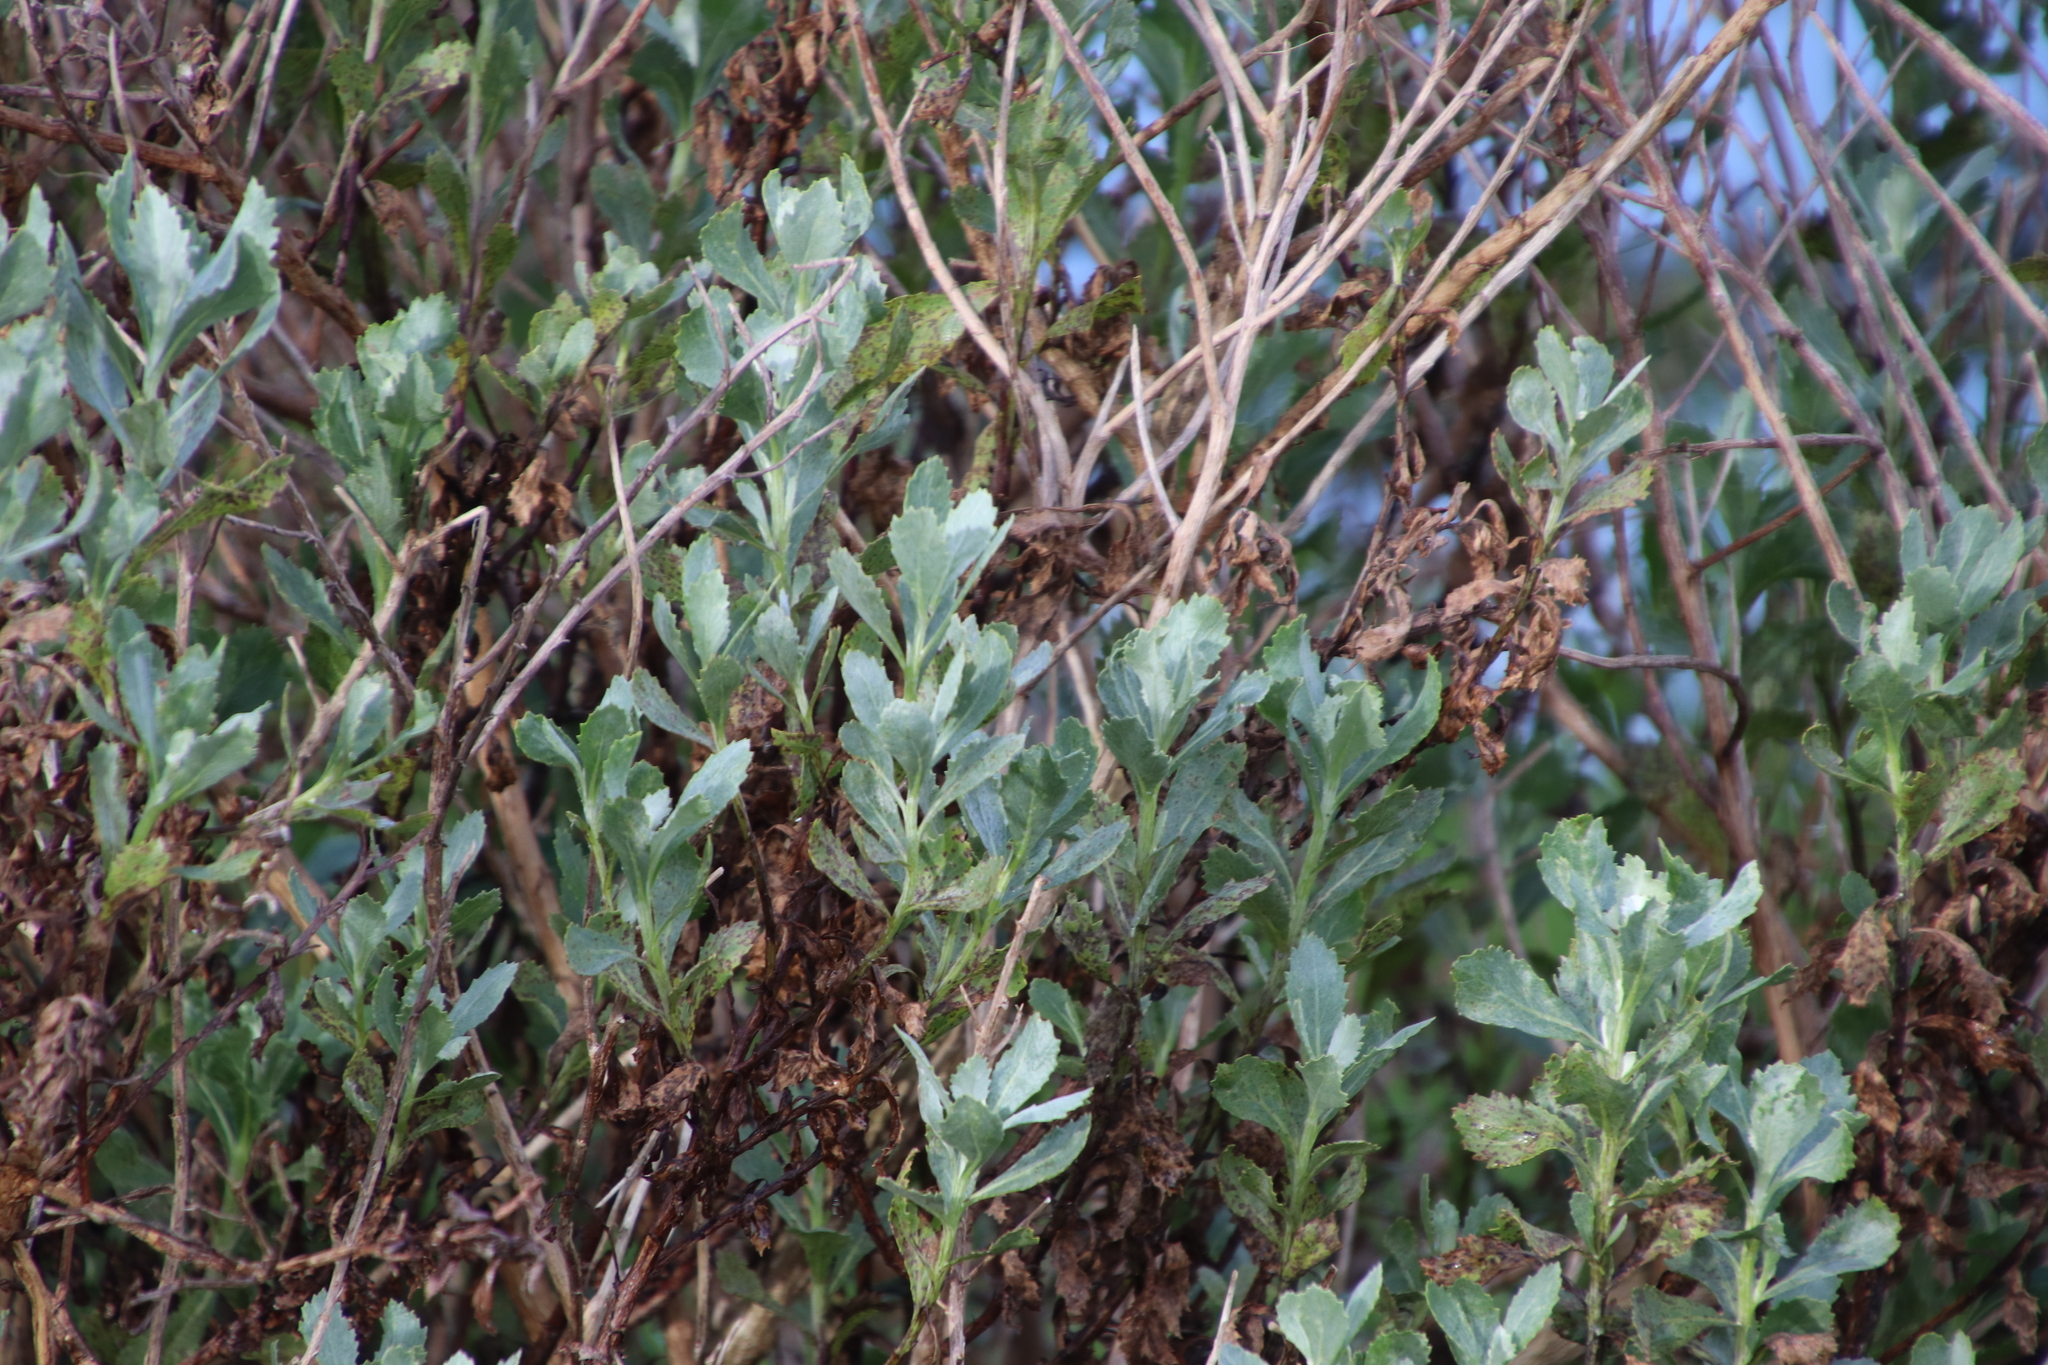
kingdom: Plantae
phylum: Tracheophyta
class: Magnoliopsida
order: Asterales
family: Asteraceae
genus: Senecio
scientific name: Senecio halimifolius
